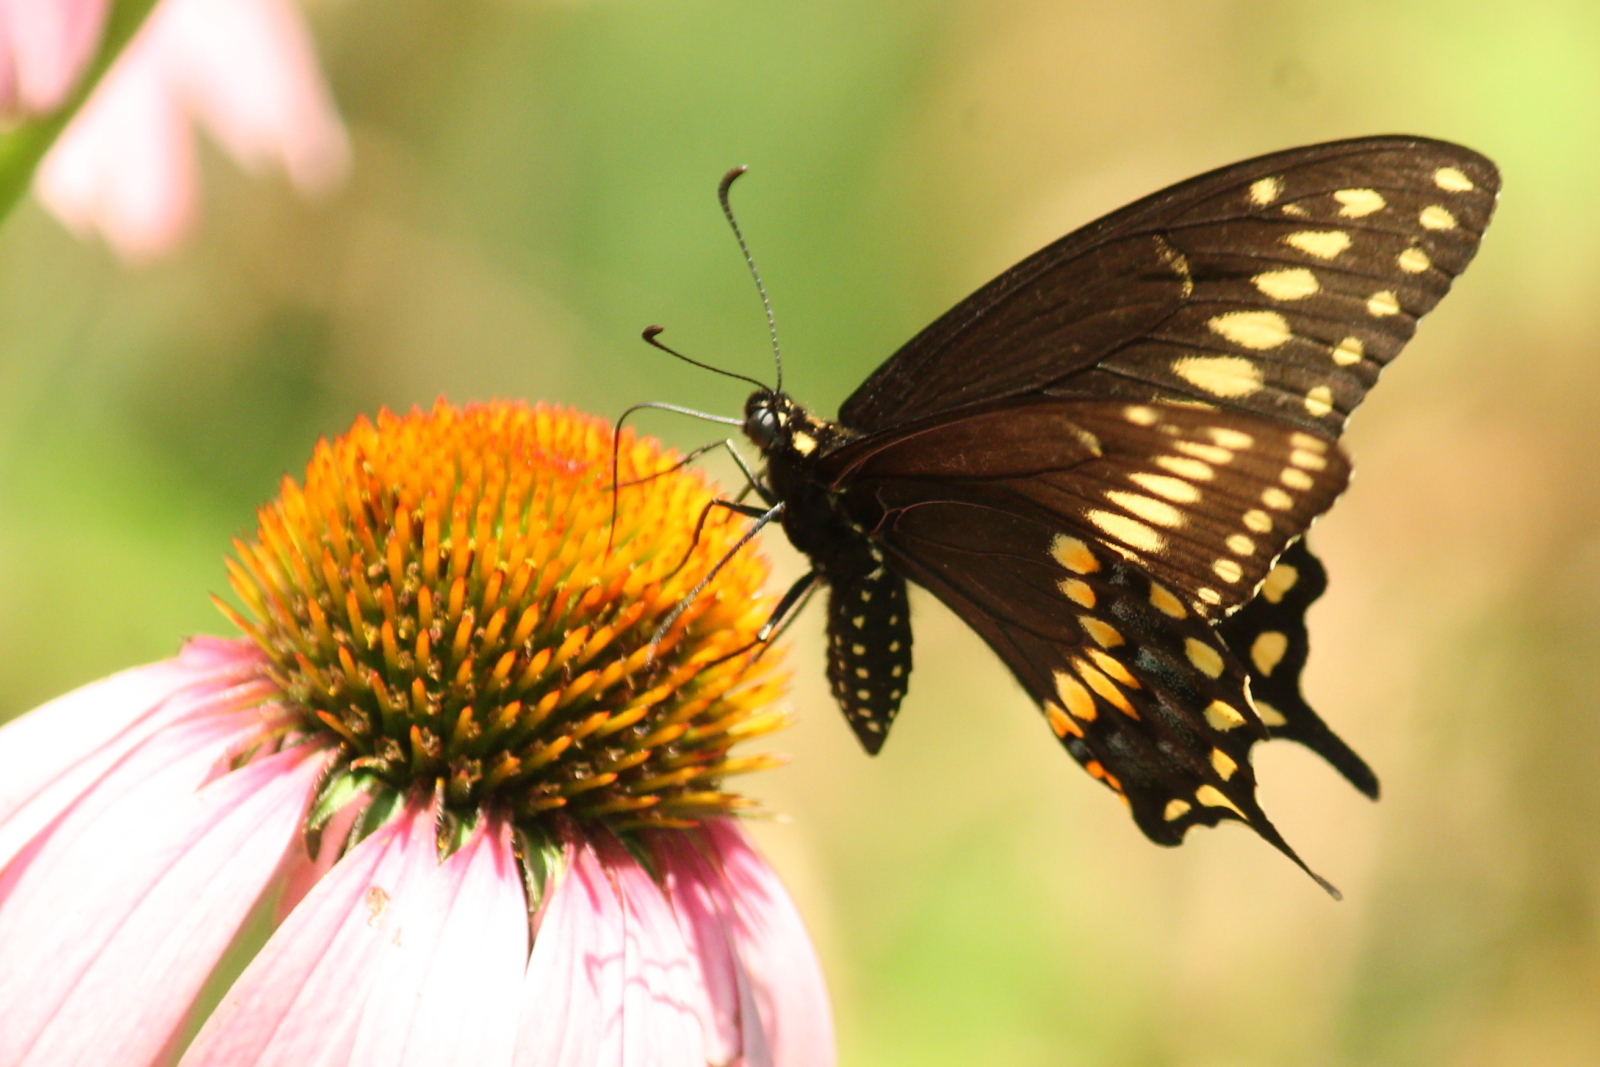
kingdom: Animalia
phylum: Arthropoda
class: Insecta
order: Lepidoptera
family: Papilionidae
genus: Papilio
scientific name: Papilio polyxenes
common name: Black swallowtail
